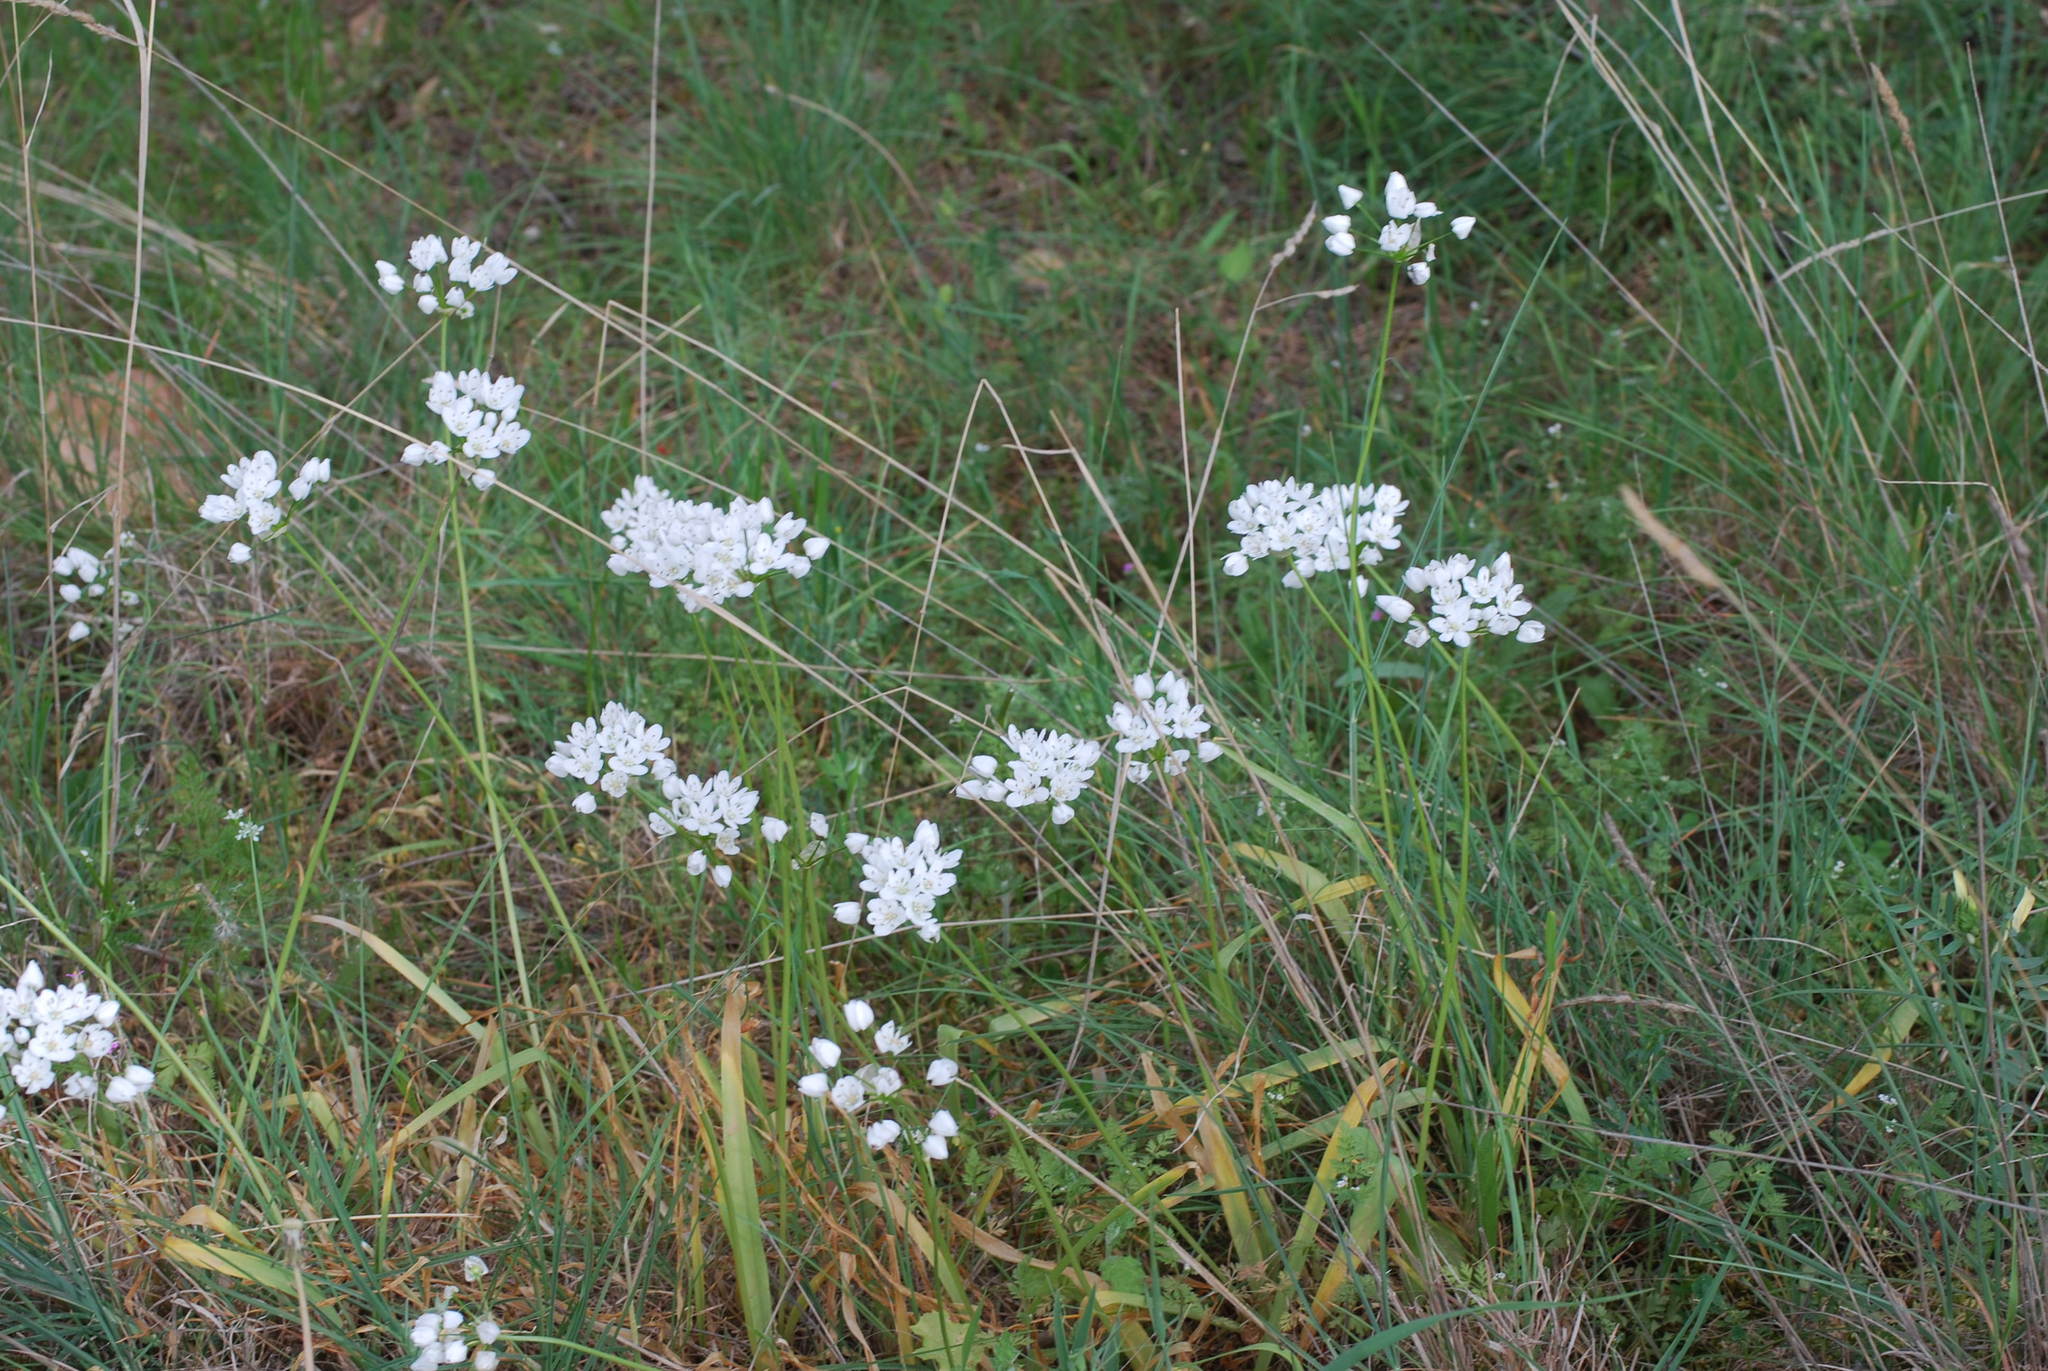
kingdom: Plantae
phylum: Tracheophyta
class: Liliopsida
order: Asparagales
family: Amaryllidaceae
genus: Allium
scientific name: Allium neapolitanum
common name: Neapolitan garlic
